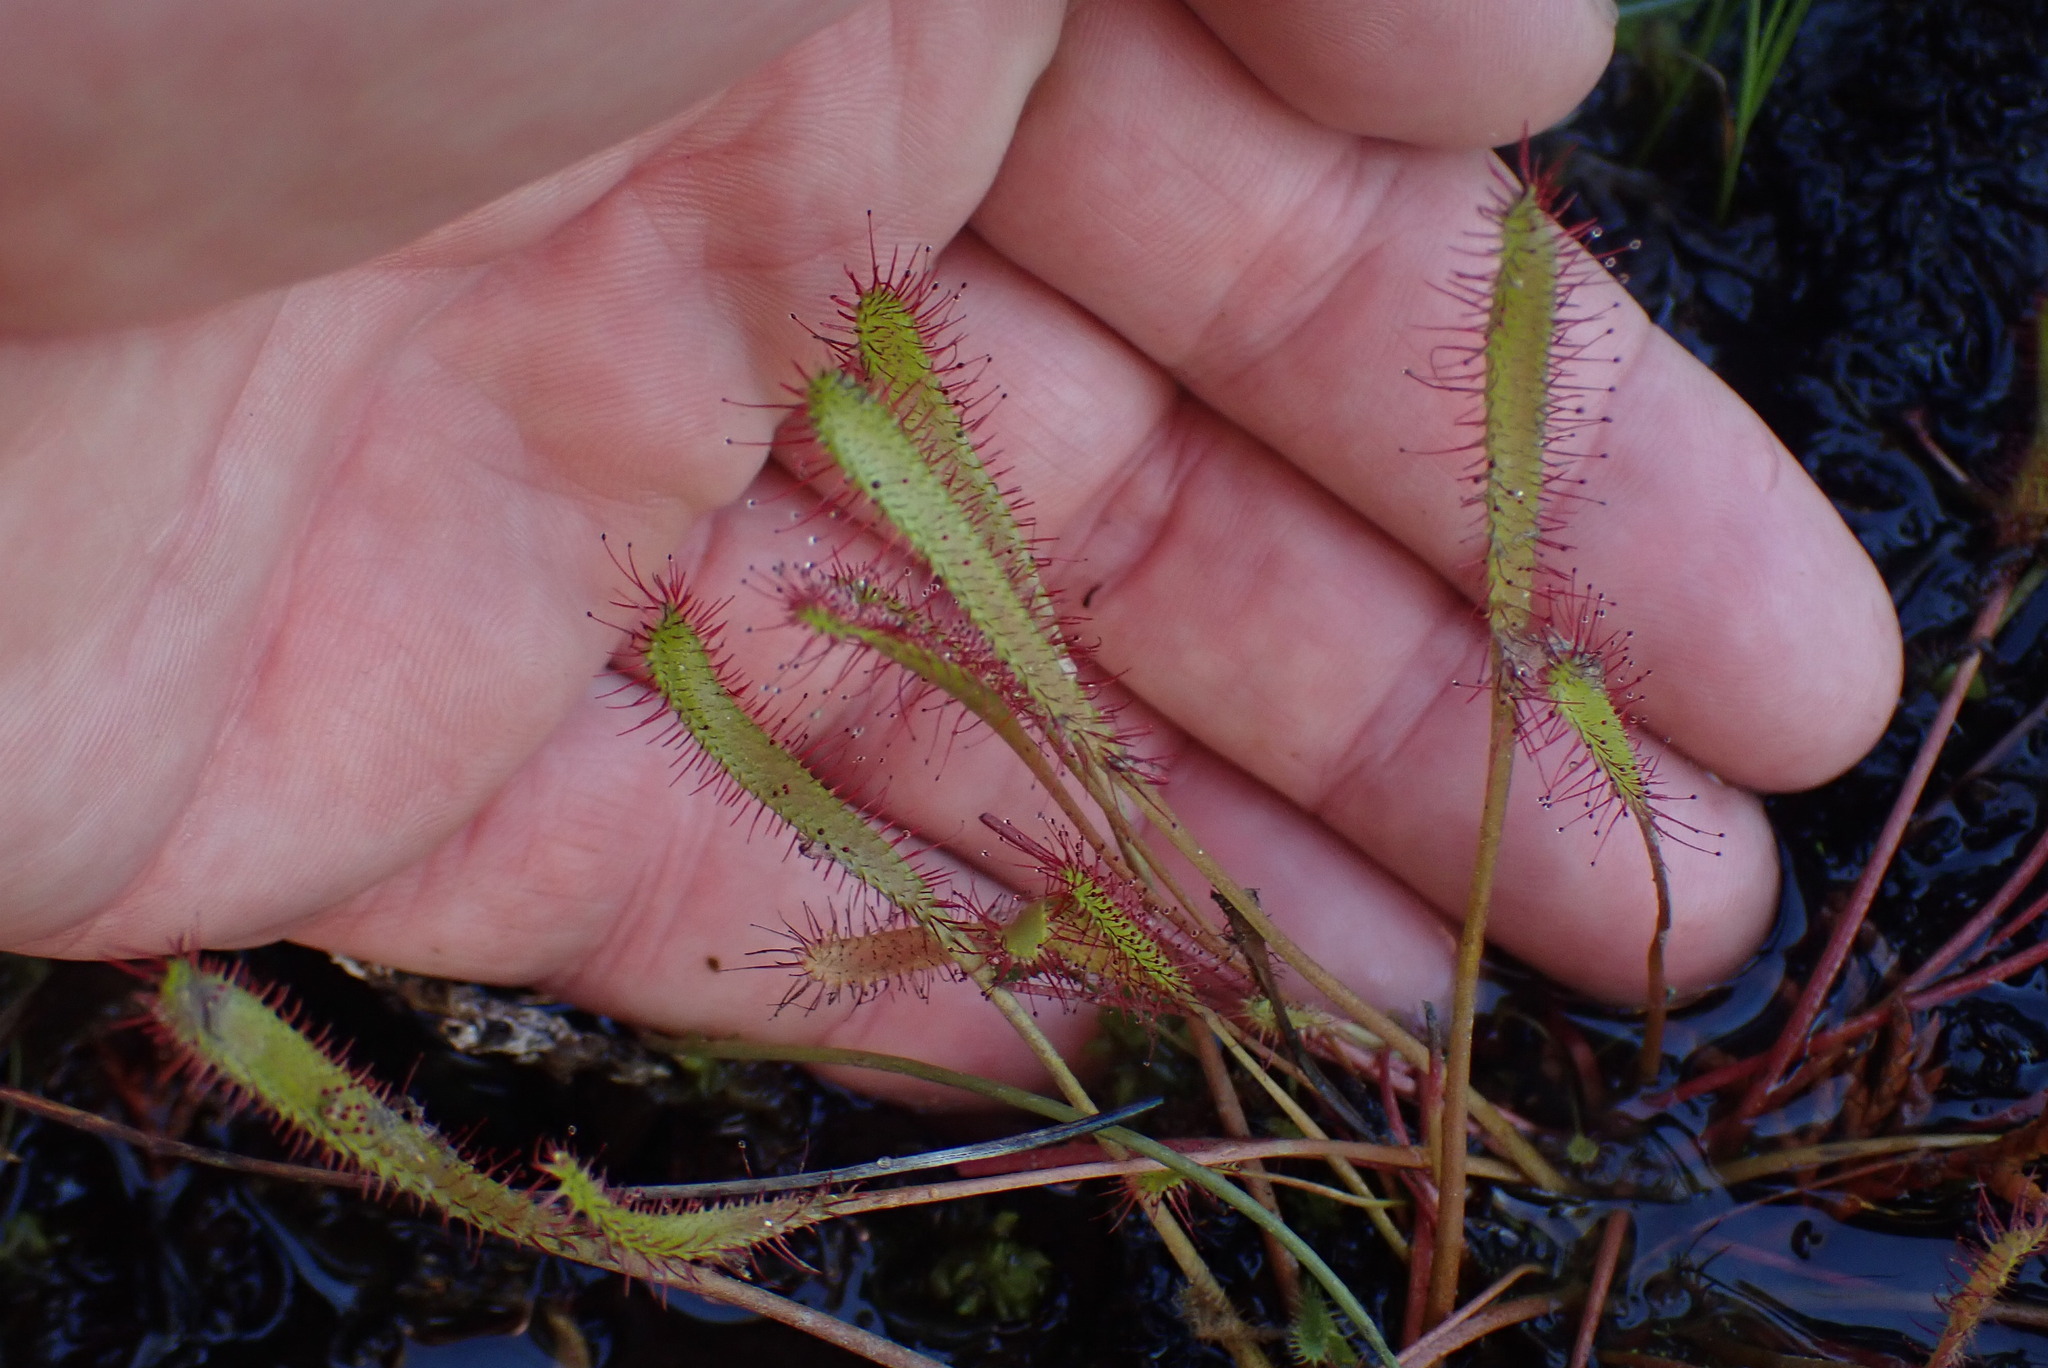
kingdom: Plantae
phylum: Tracheophyta
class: Magnoliopsida
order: Caryophyllales
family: Droseraceae
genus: Drosera
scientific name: Drosera anglica
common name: Great sundew
